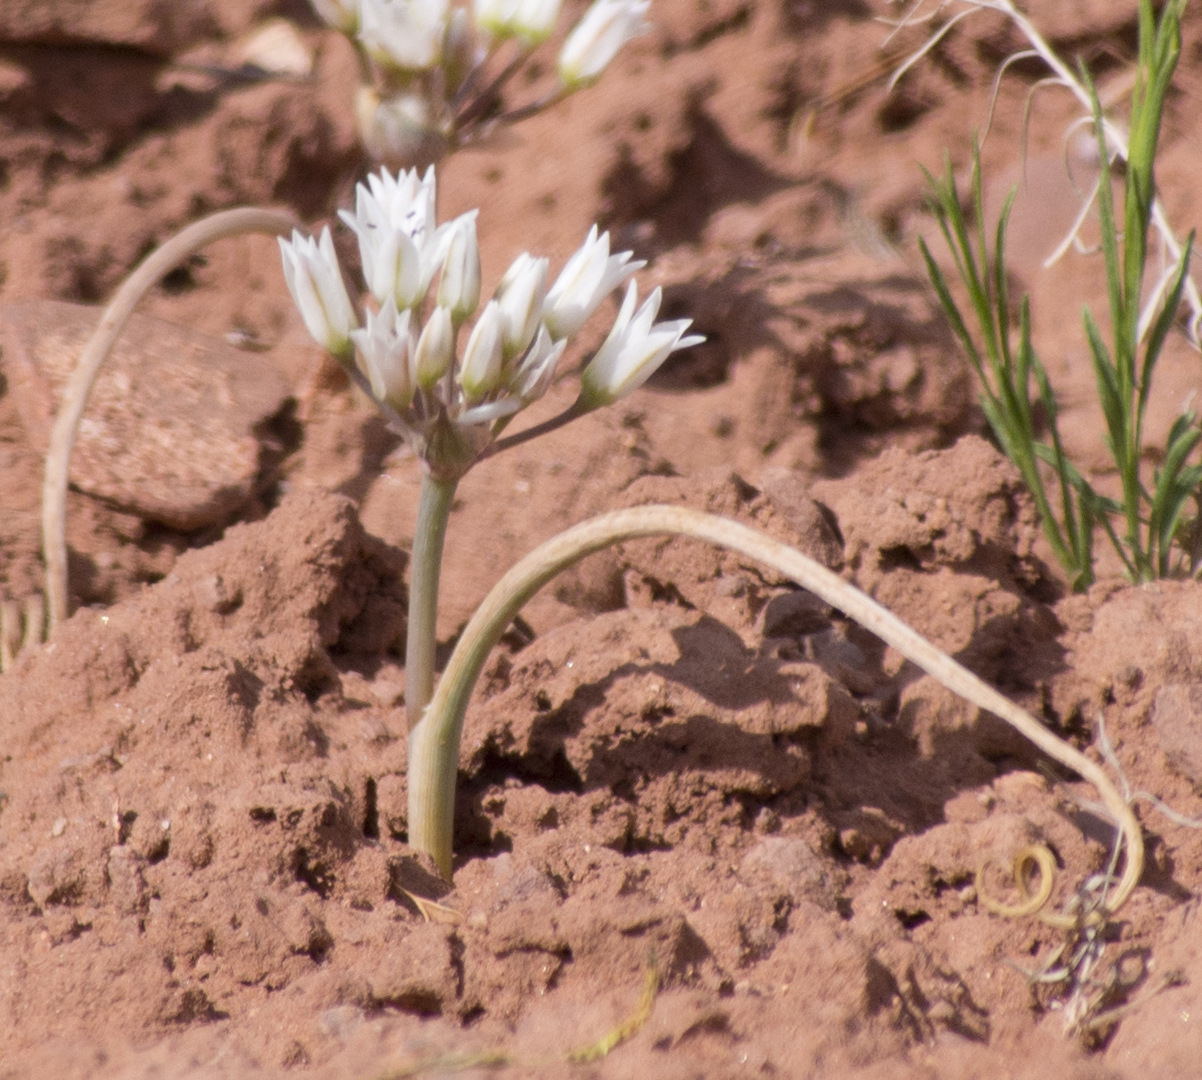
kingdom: Plantae
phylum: Tracheophyta
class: Liliopsida
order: Asparagales
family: Amaryllidaceae
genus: Allium
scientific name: Allium macropetalum
